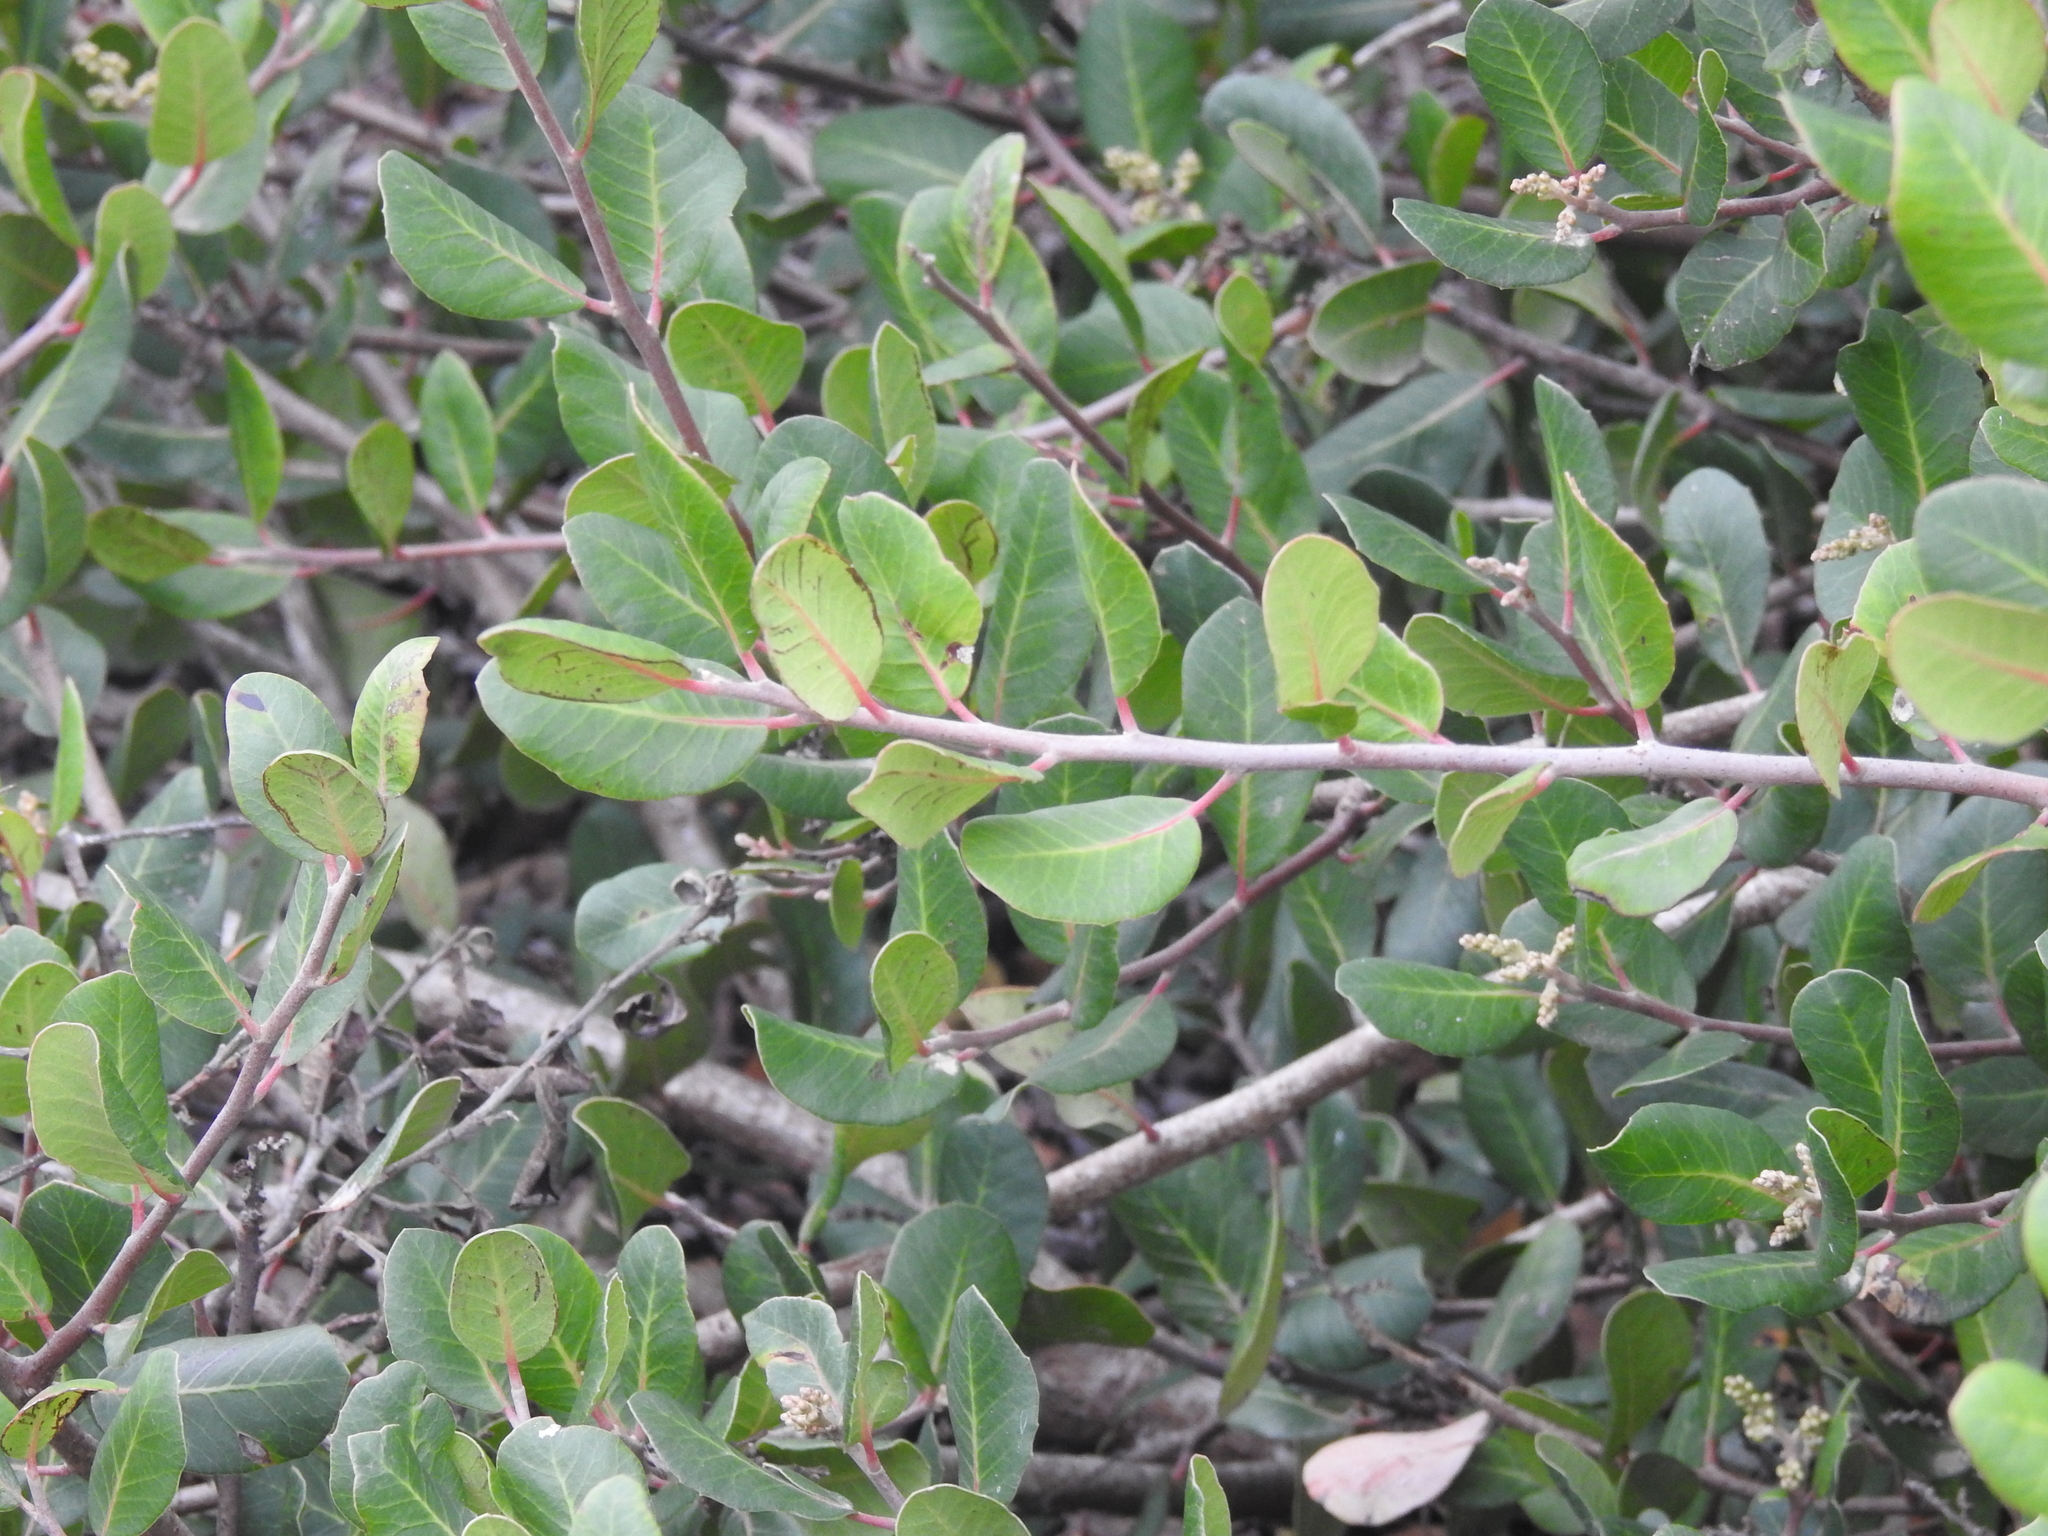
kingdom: Plantae
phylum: Tracheophyta
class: Magnoliopsida
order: Sapindales
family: Anacardiaceae
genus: Rhus
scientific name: Rhus integrifolia
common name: Lemonade sumac
